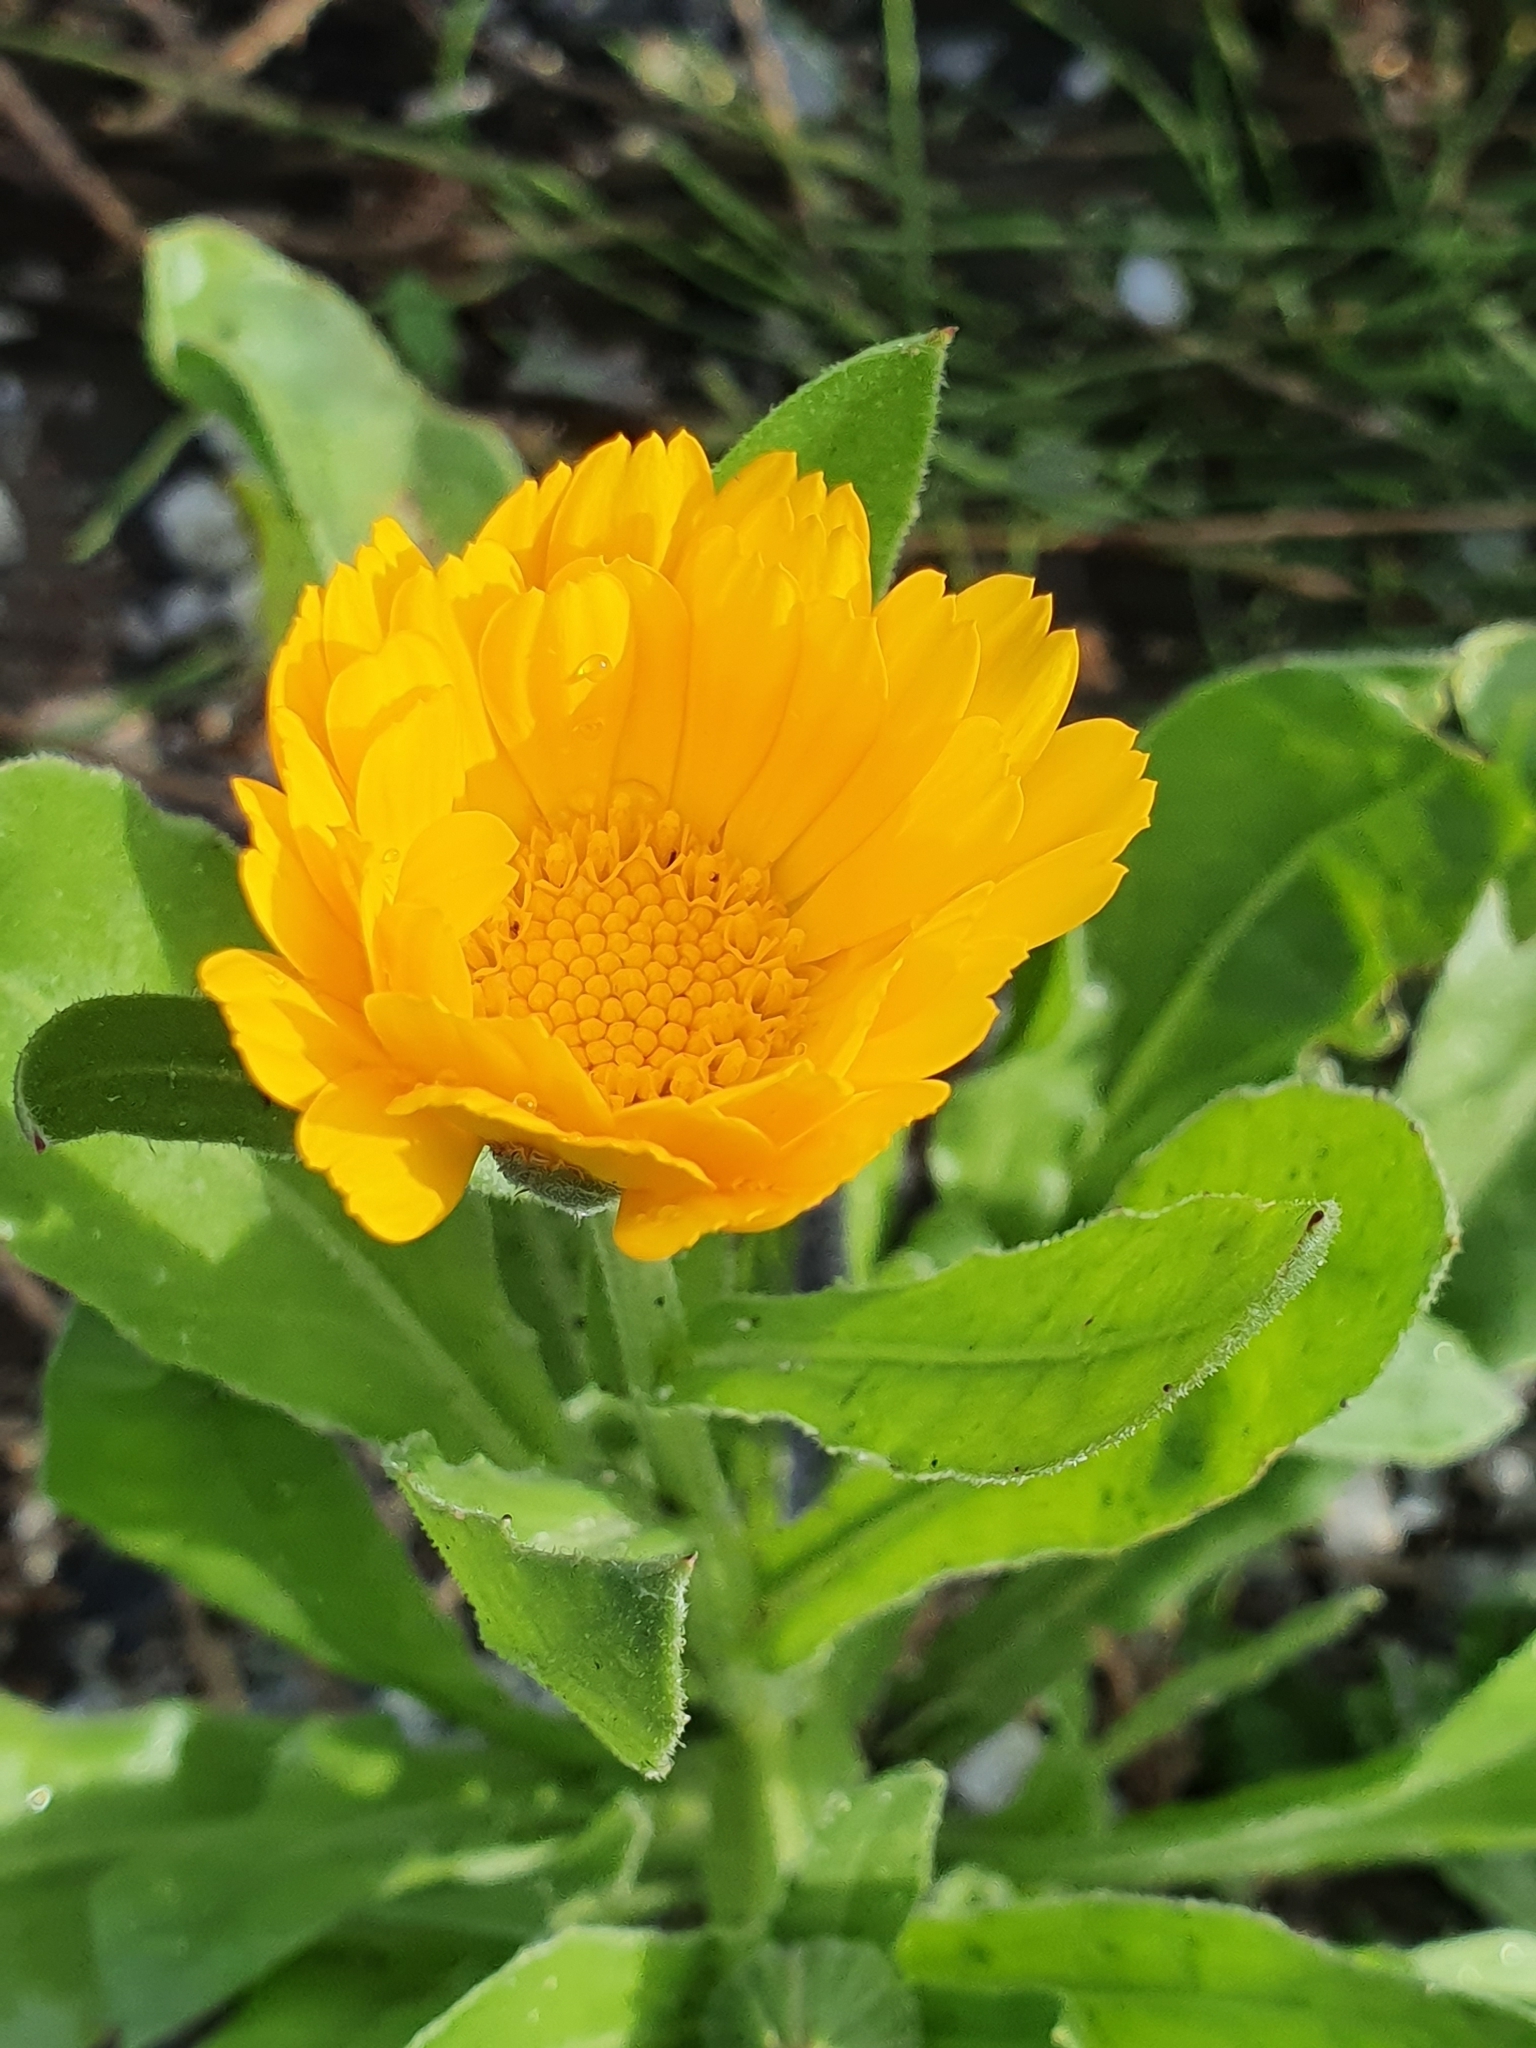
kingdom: Plantae
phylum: Tracheophyta
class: Magnoliopsida
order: Asterales
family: Asteraceae
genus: Calendula
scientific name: Calendula officinalis
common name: Pot marigold
